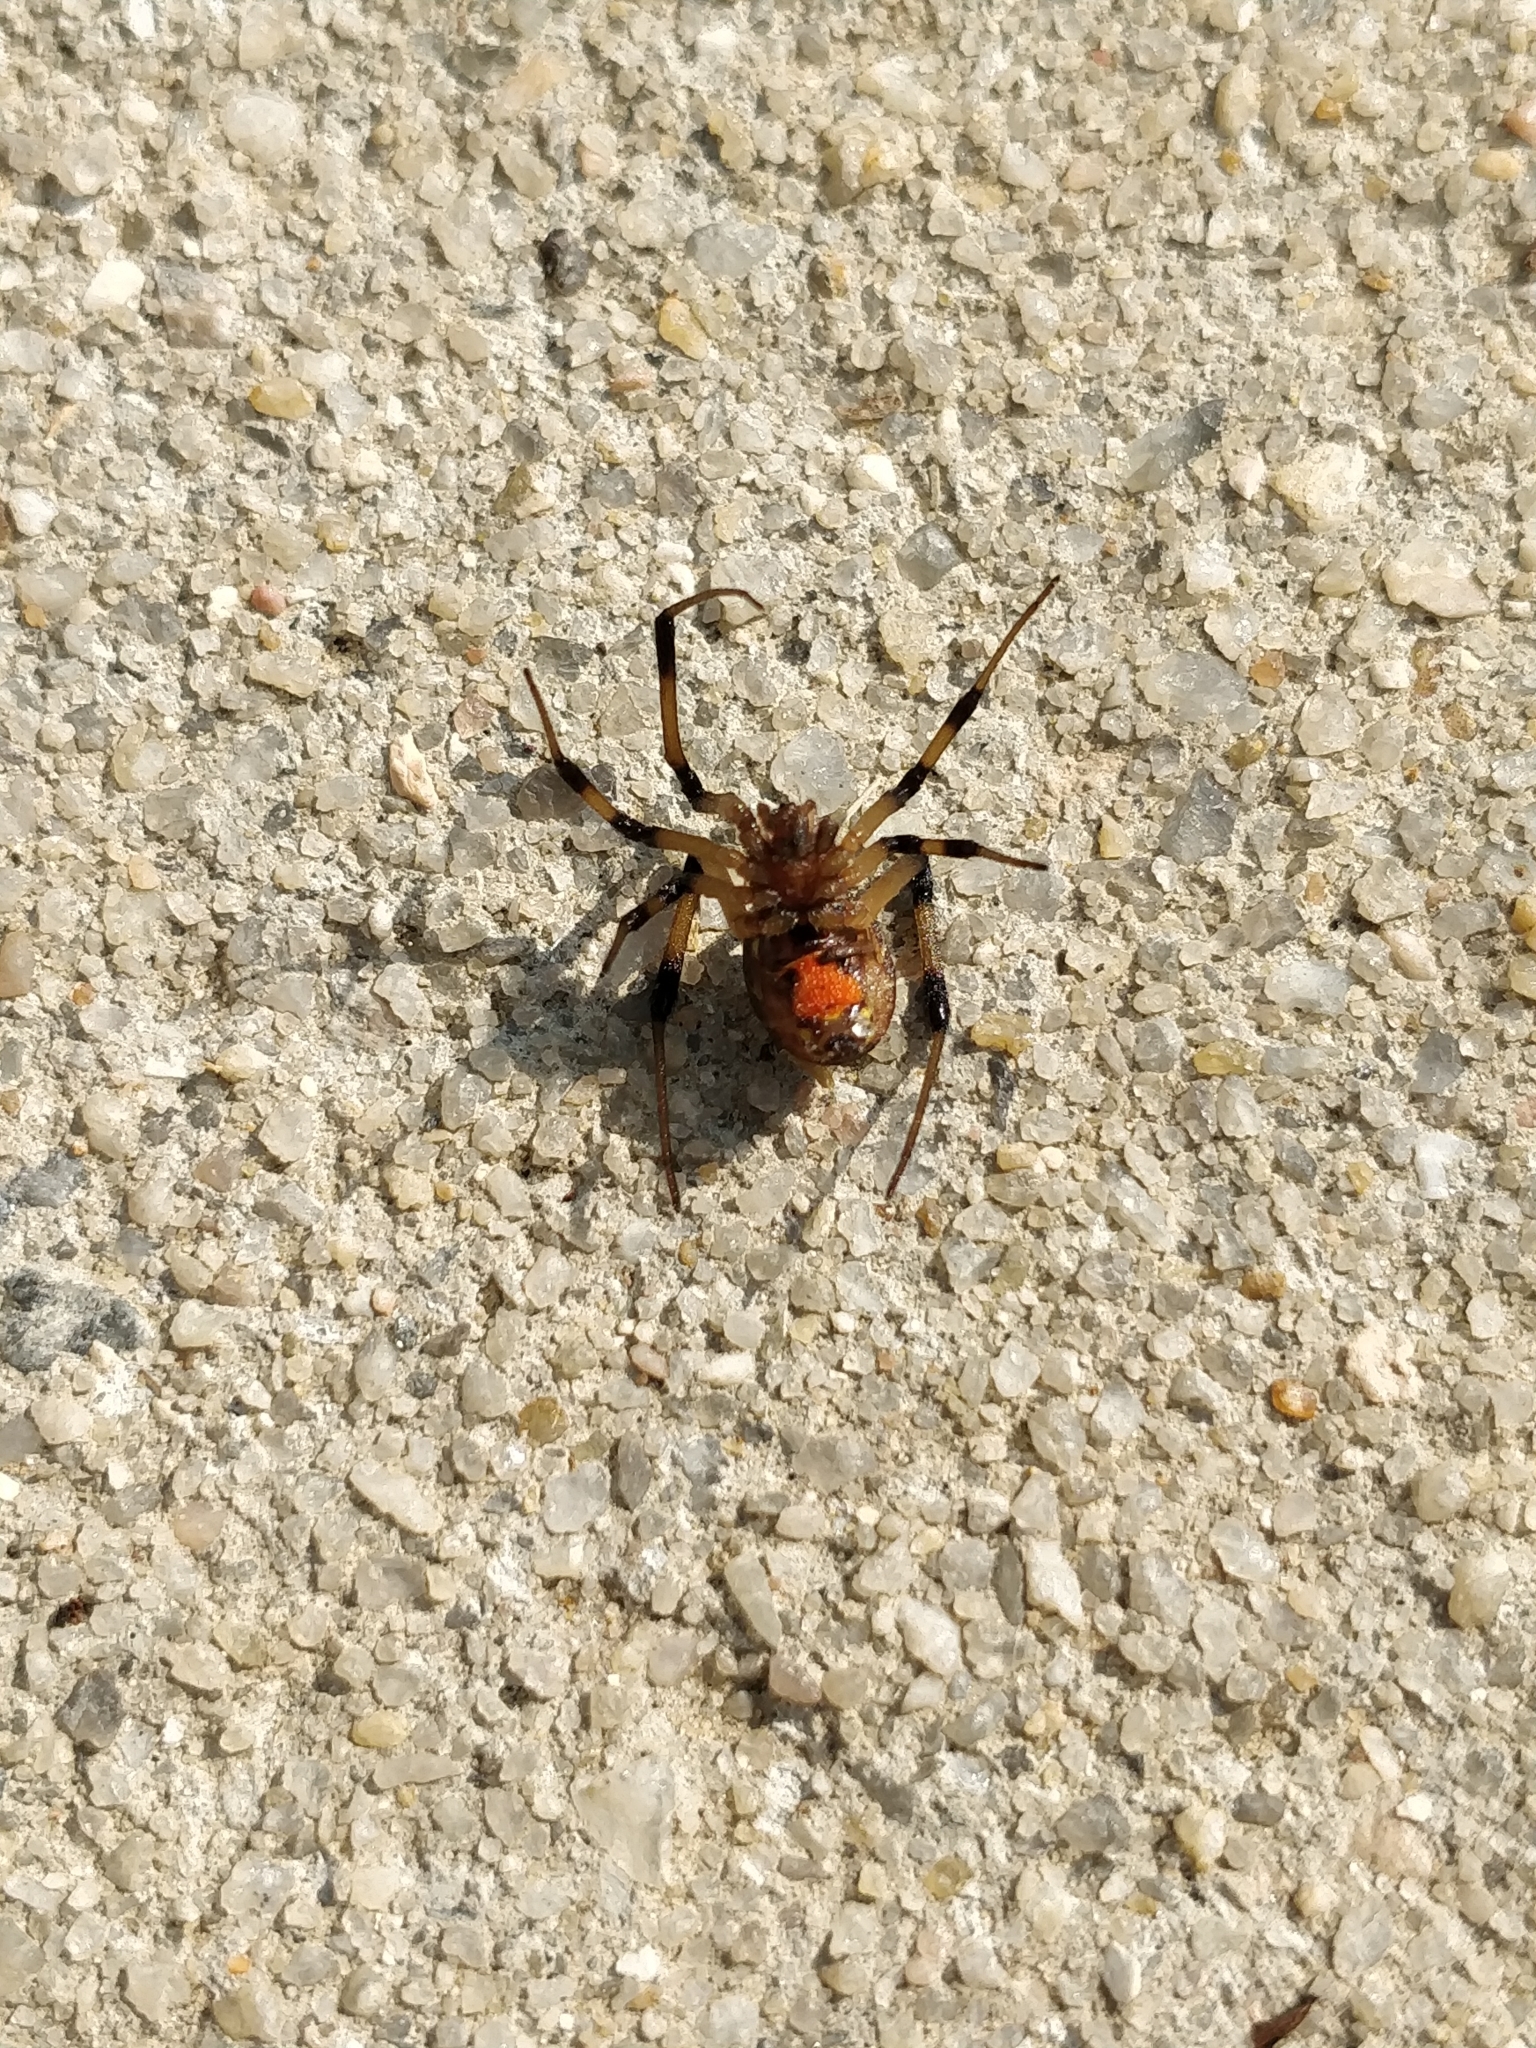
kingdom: Animalia
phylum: Arthropoda
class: Arachnida
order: Araneae
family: Theridiidae
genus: Latrodectus
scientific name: Latrodectus geometricus
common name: Brown widow spider
